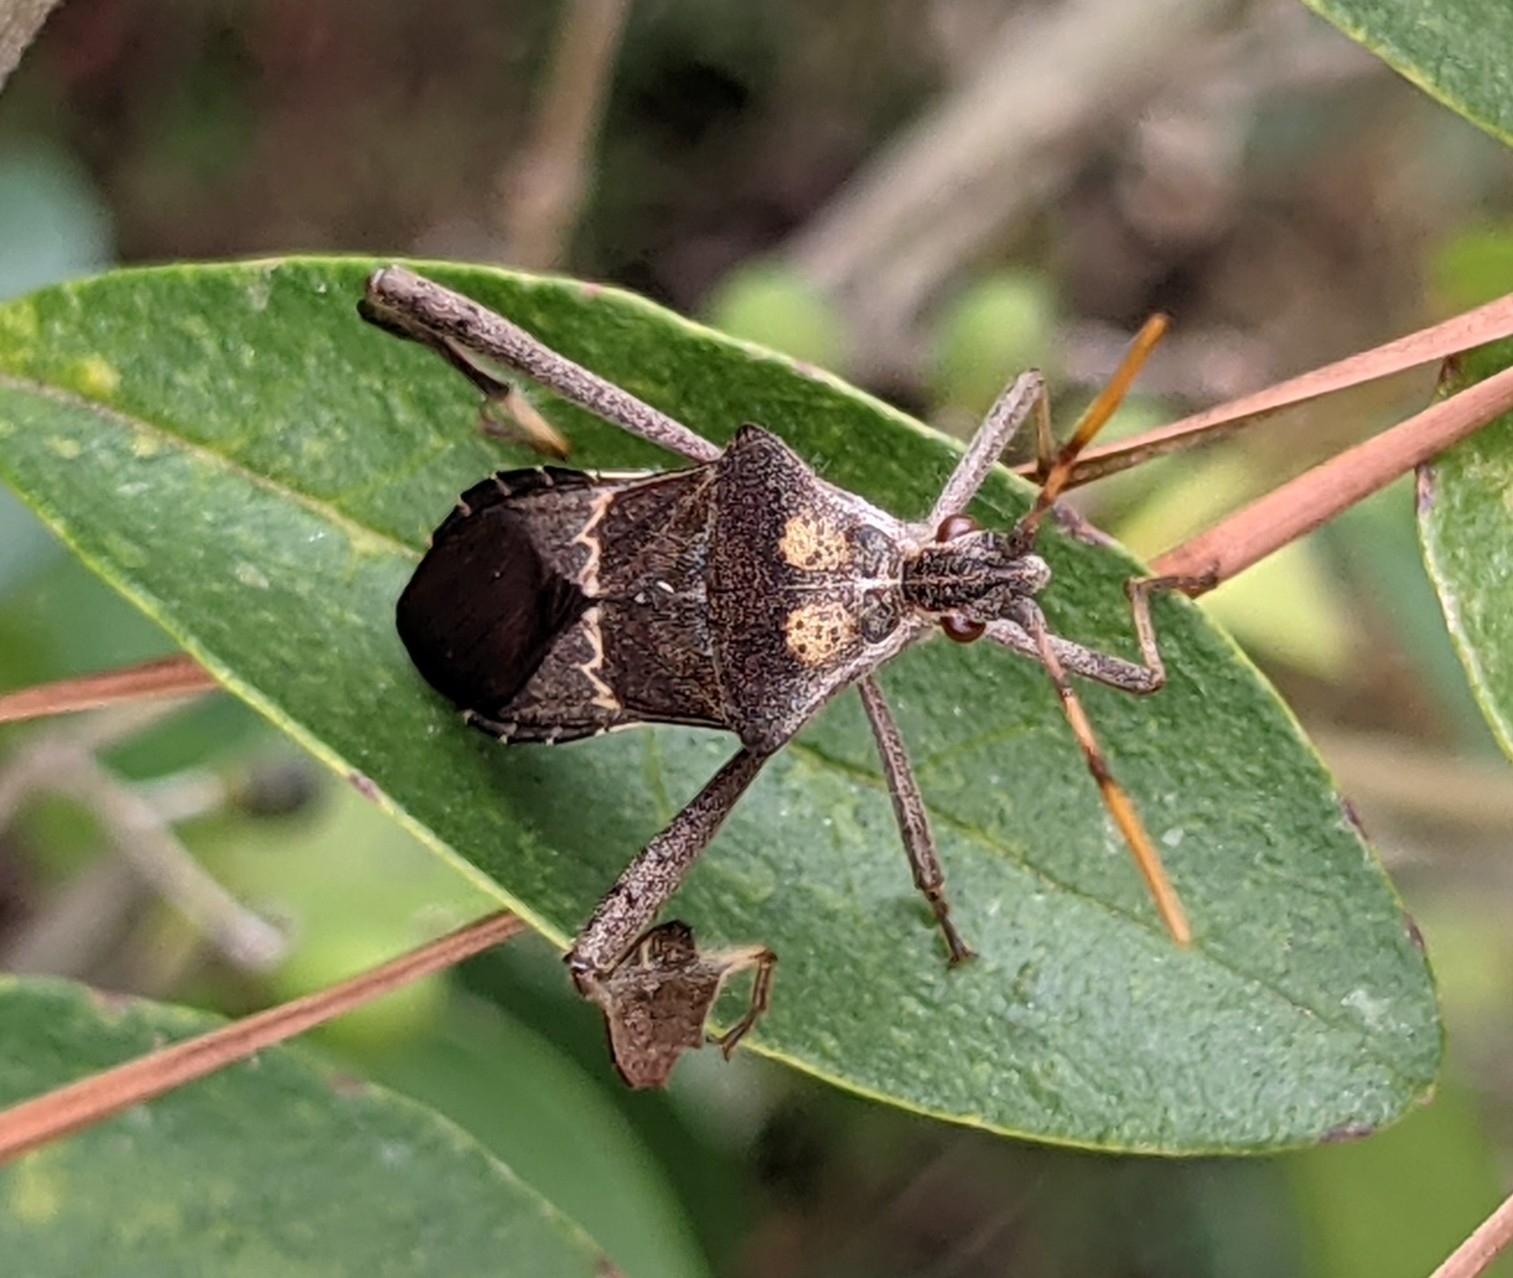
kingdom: Animalia
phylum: Arthropoda
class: Insecta
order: Hemiptera
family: Coreidae
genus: Leptoglossus
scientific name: Leptoglossus zonatus
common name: Large-legged bug
